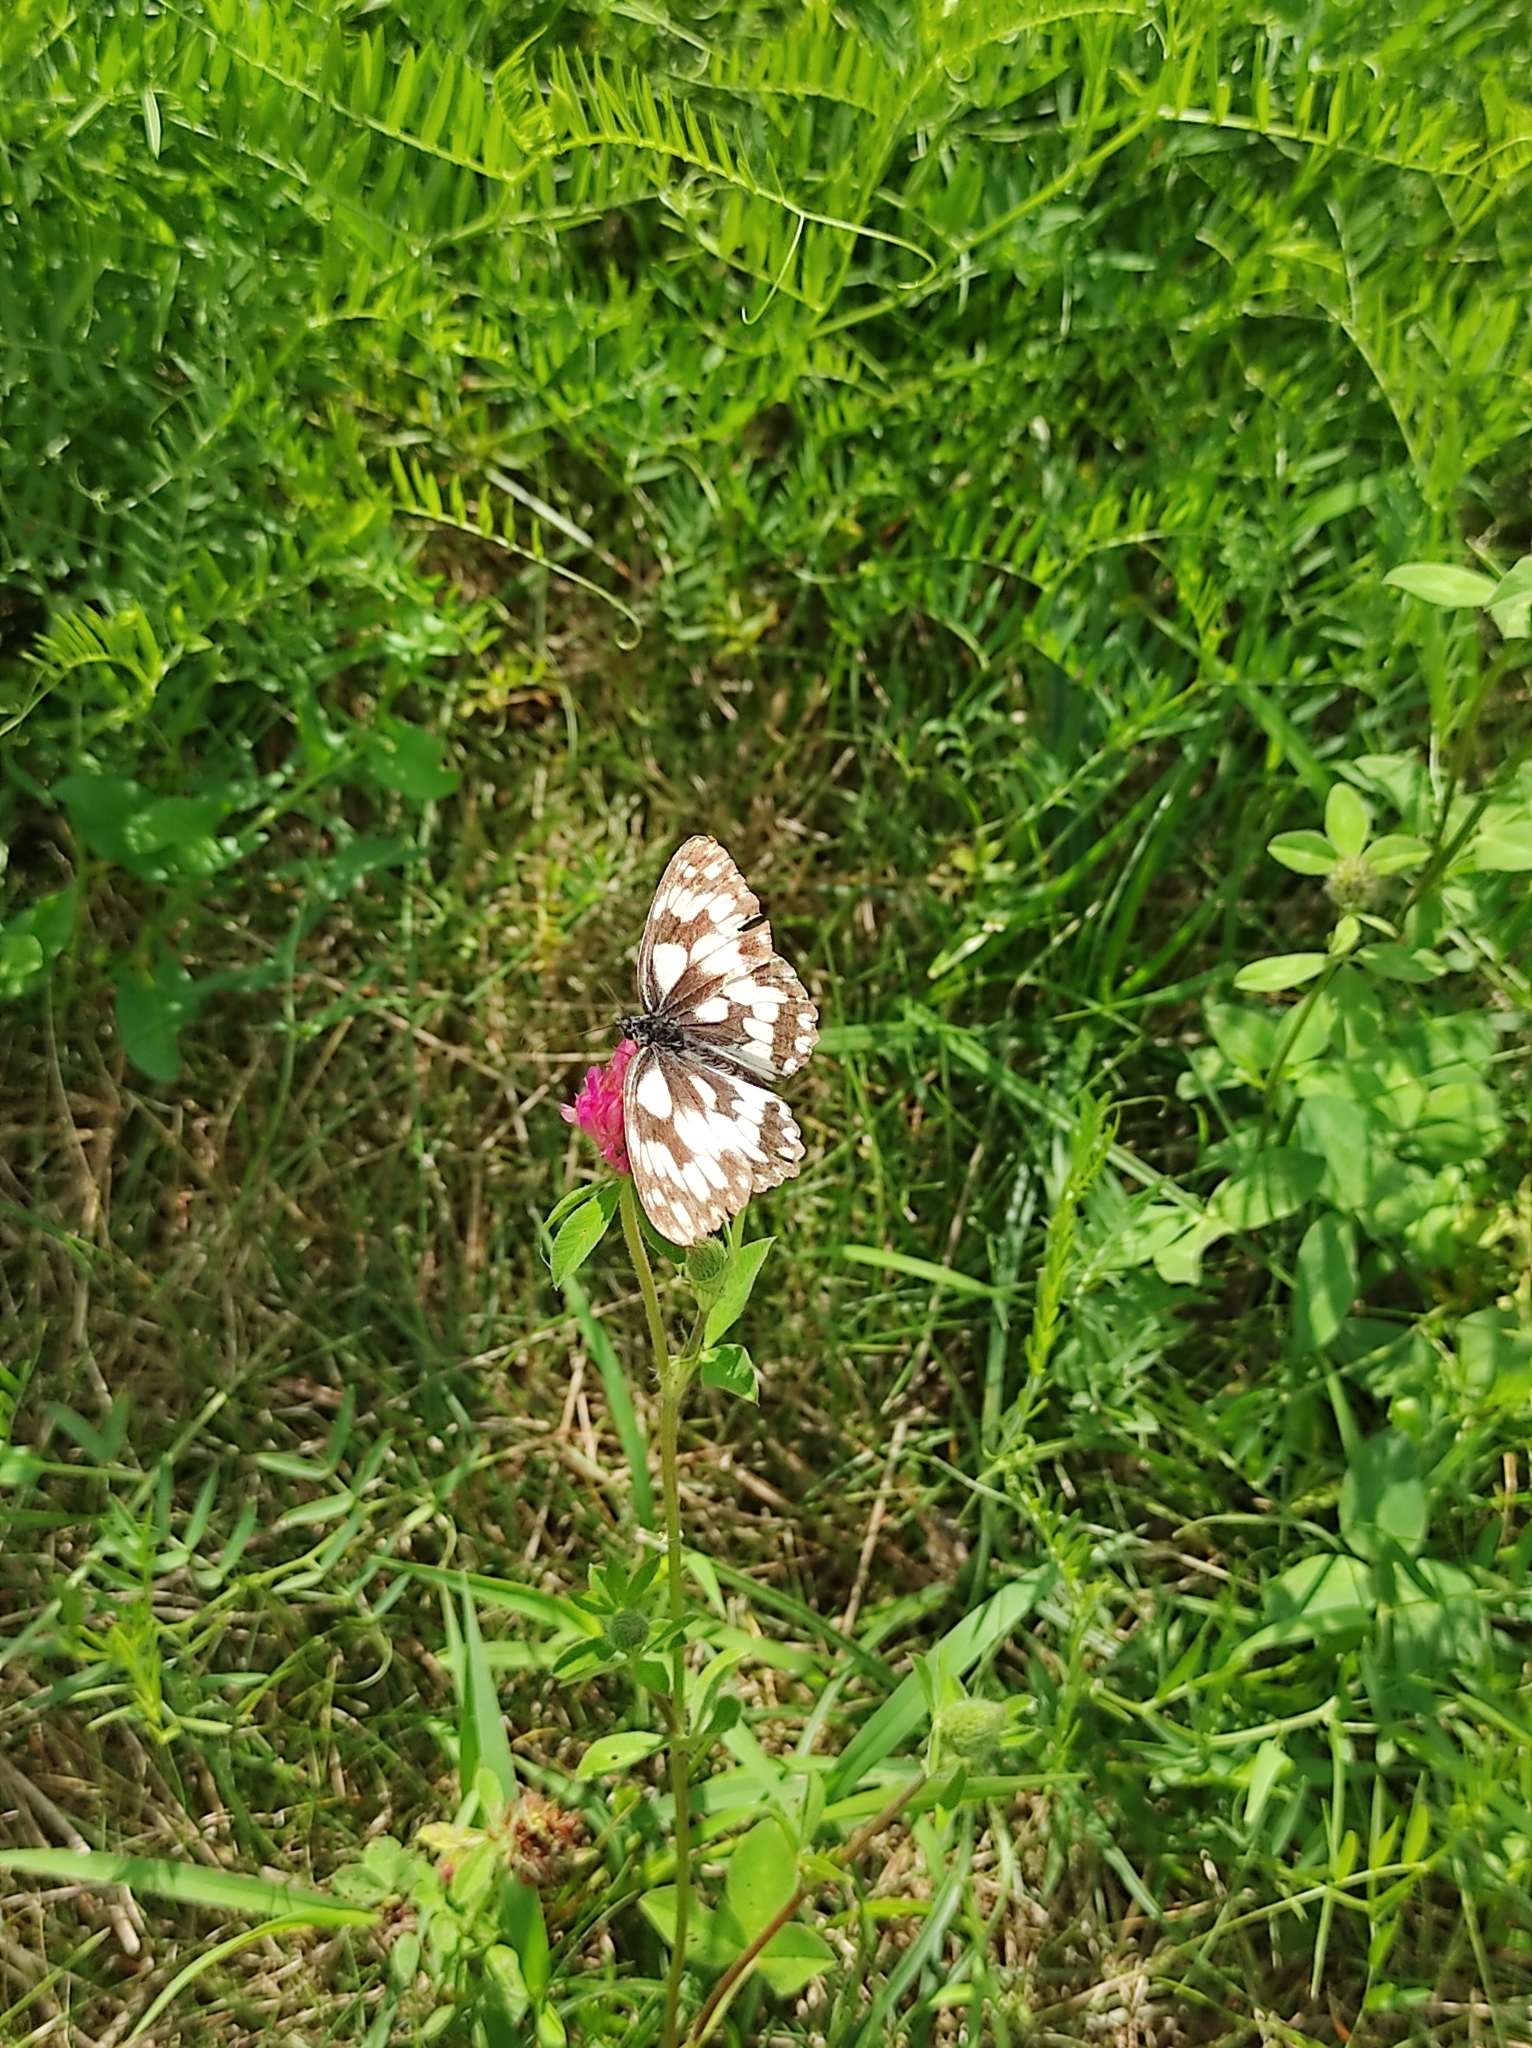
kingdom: Animalia
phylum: Arthropoda
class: Insecta
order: Lepidoptera
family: Nymphalidae
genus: Melanargia
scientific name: Melanargia galathea
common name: Marbled white
